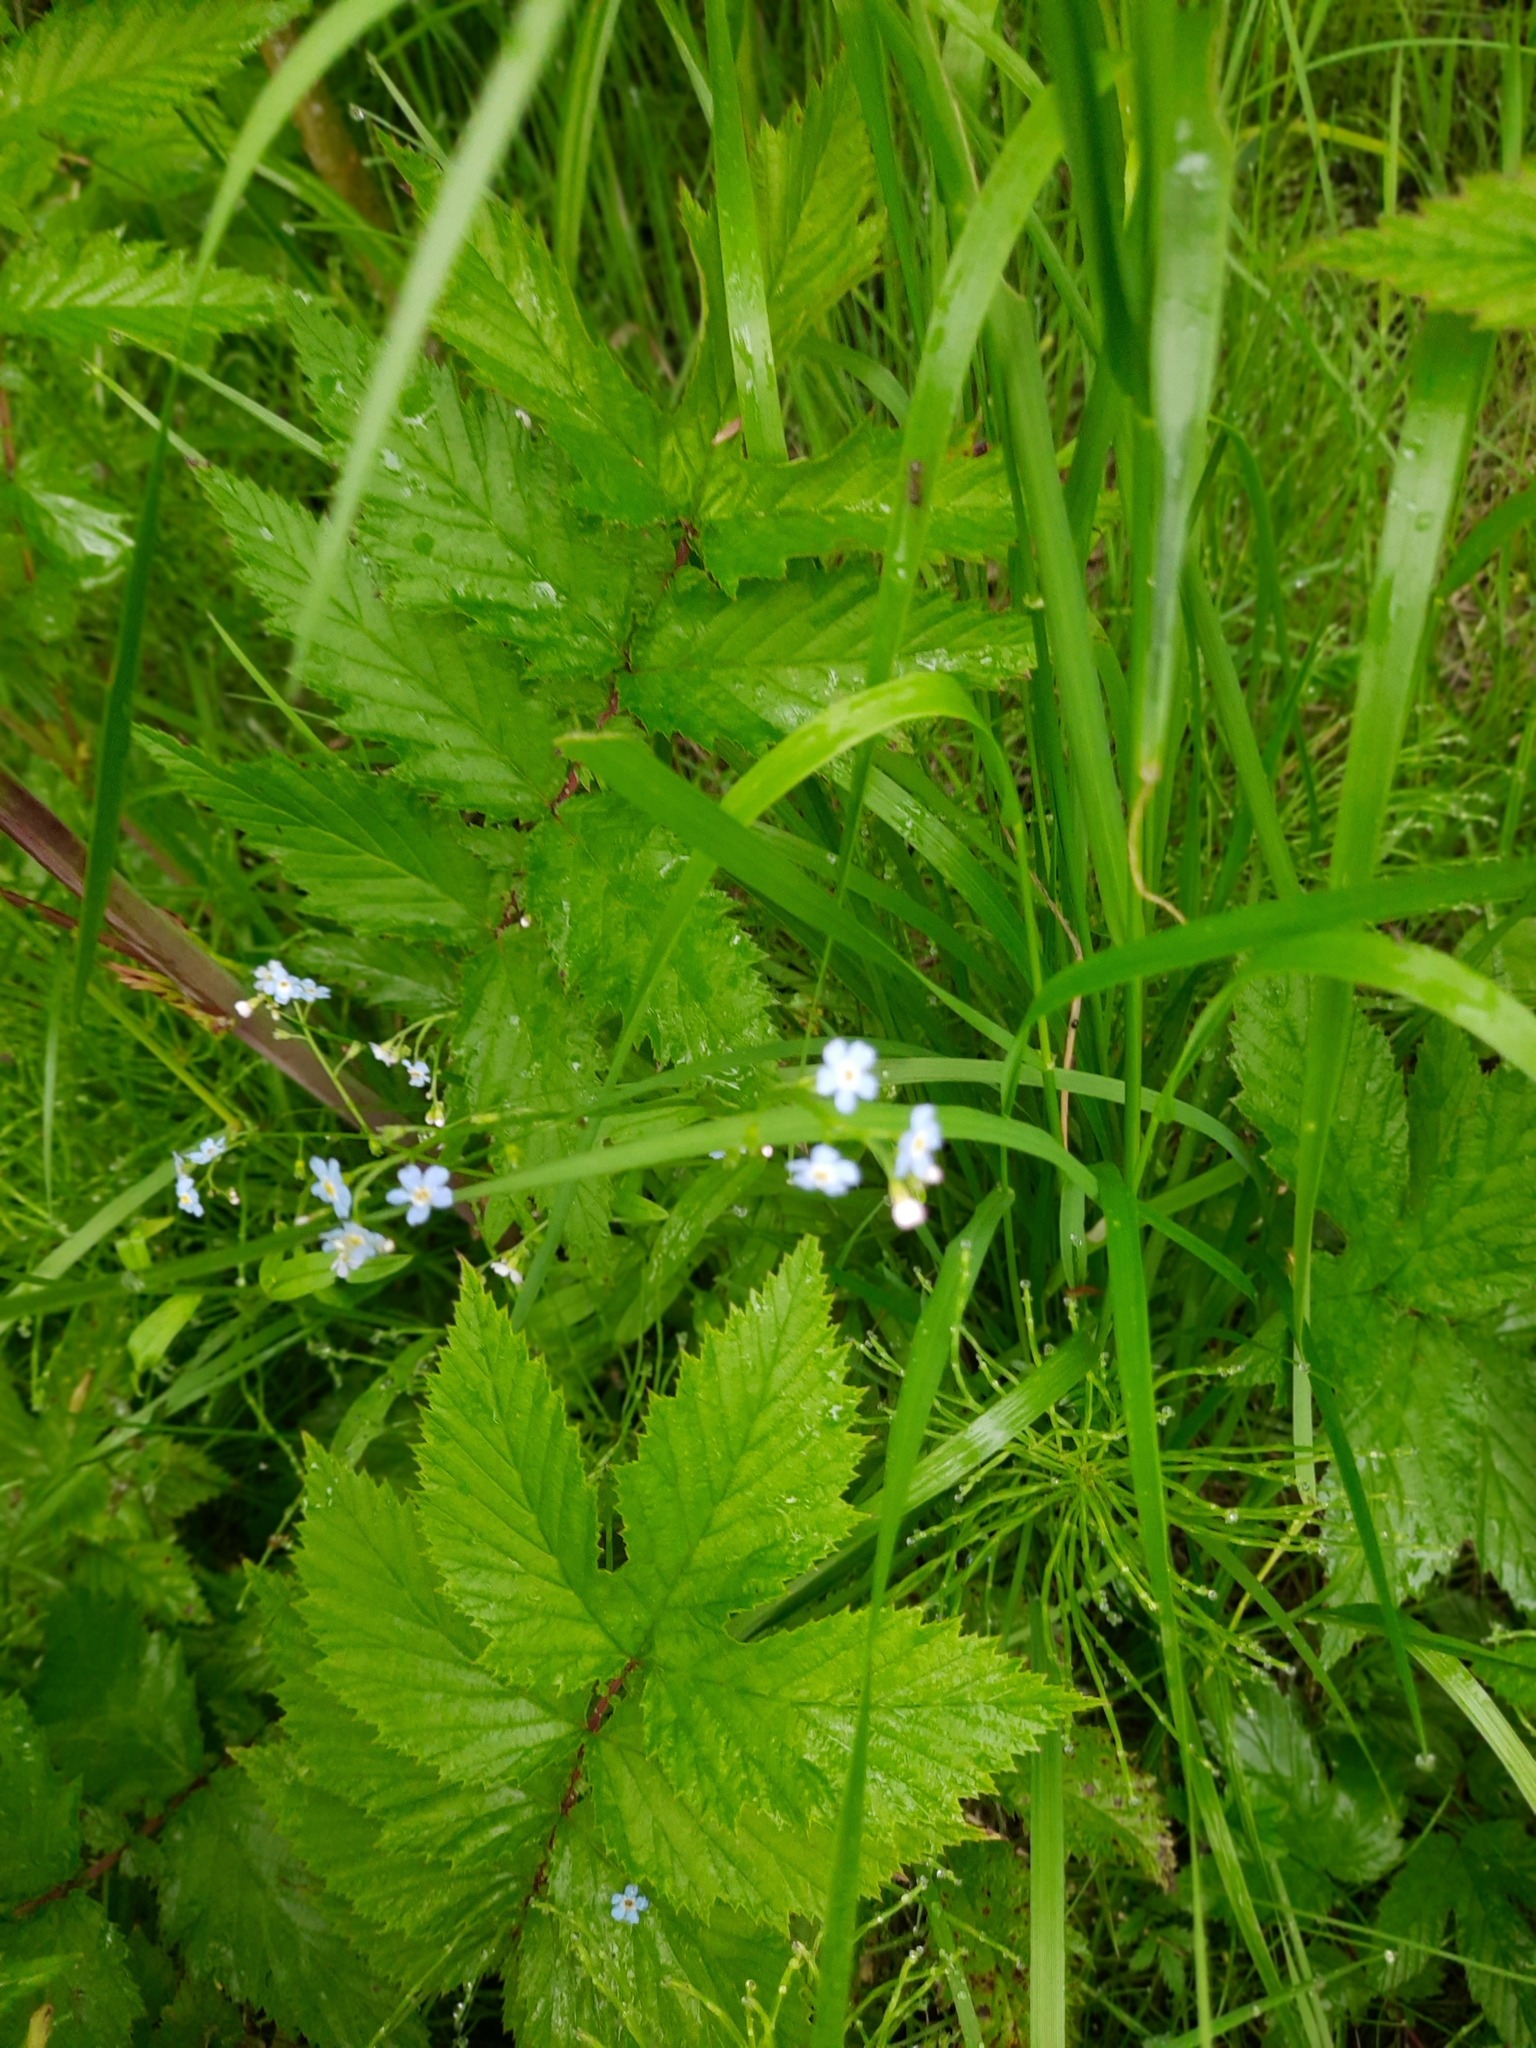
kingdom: Plantae
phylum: Tracheophyta
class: Magnoliopsida
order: Boraginales
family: Boraginaceae
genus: Myosotis
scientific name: Myosotis scorpioides
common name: Water forget-me-not
